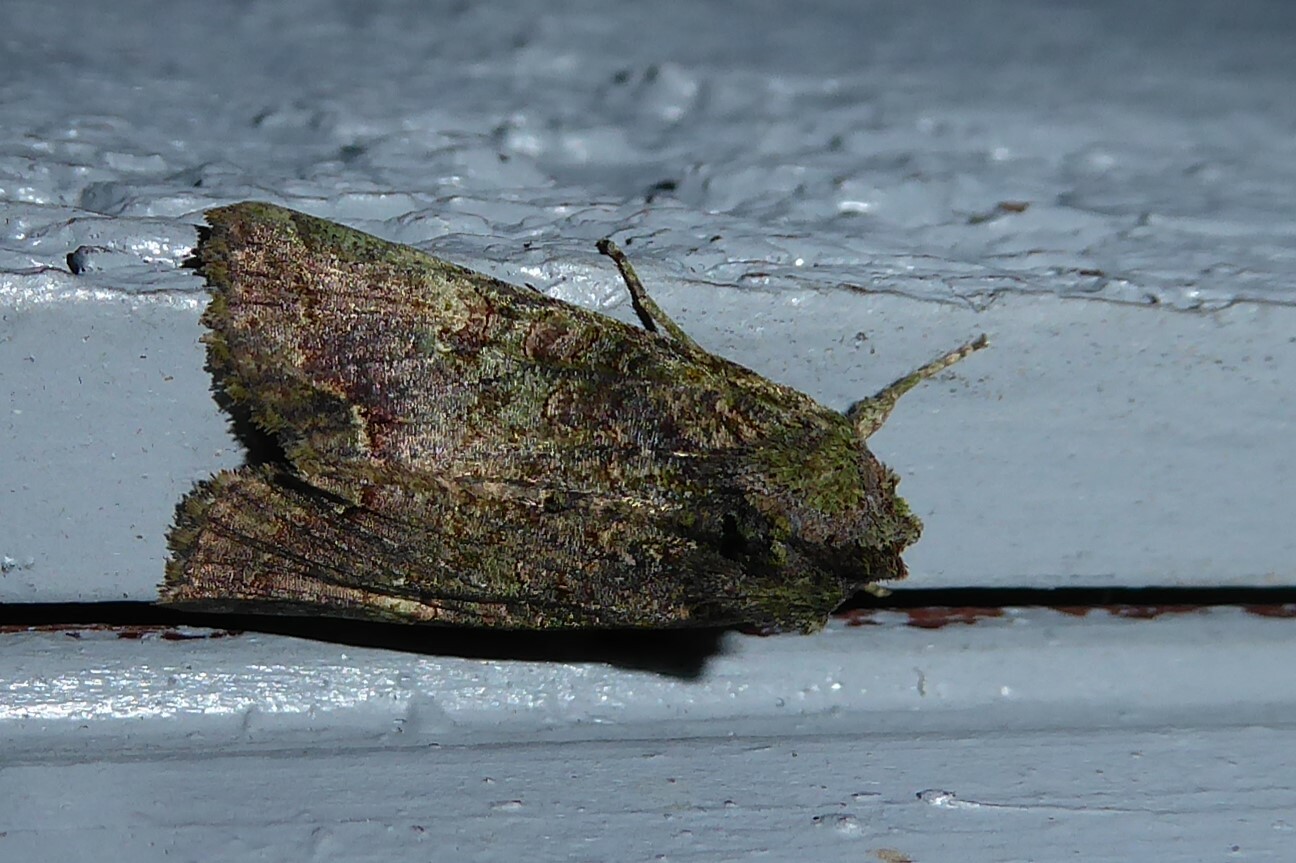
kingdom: Animalia
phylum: Arthropoda
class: Insecta
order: Lepidoptera
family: Noctuidae
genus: Meterana
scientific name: Meterana levis
